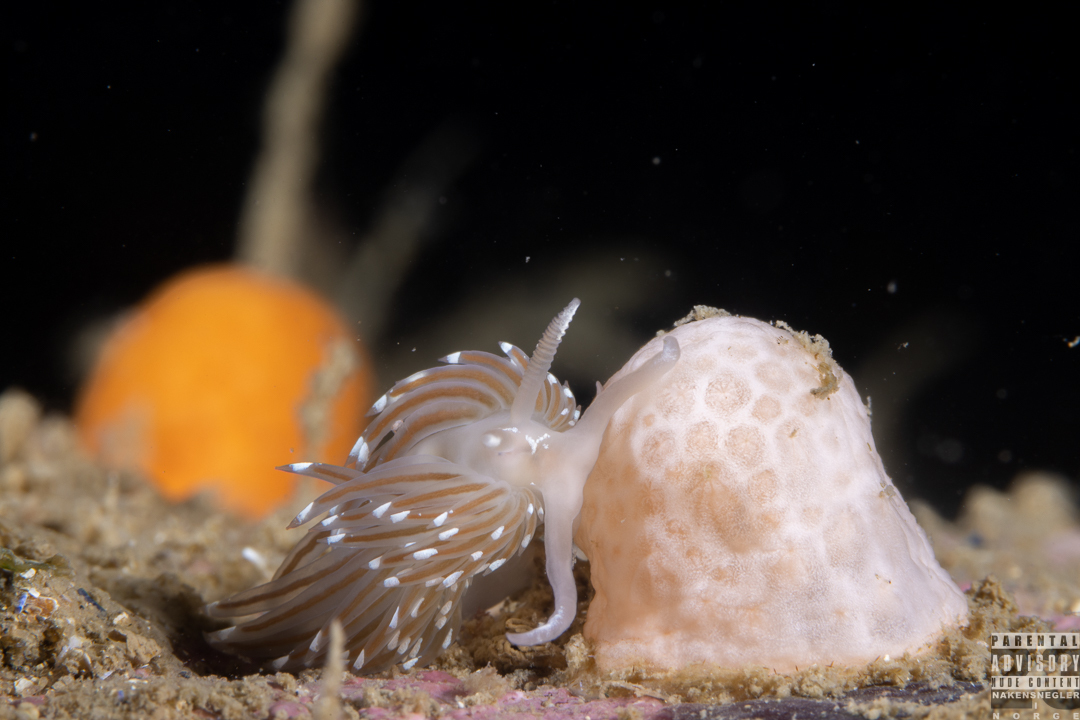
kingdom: Animalia
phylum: Mollusca
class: Gastropoda
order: Nudibranchia
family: Facelinidae
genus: Facelina
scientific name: Facelina bostoniensis
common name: Boston facelina
